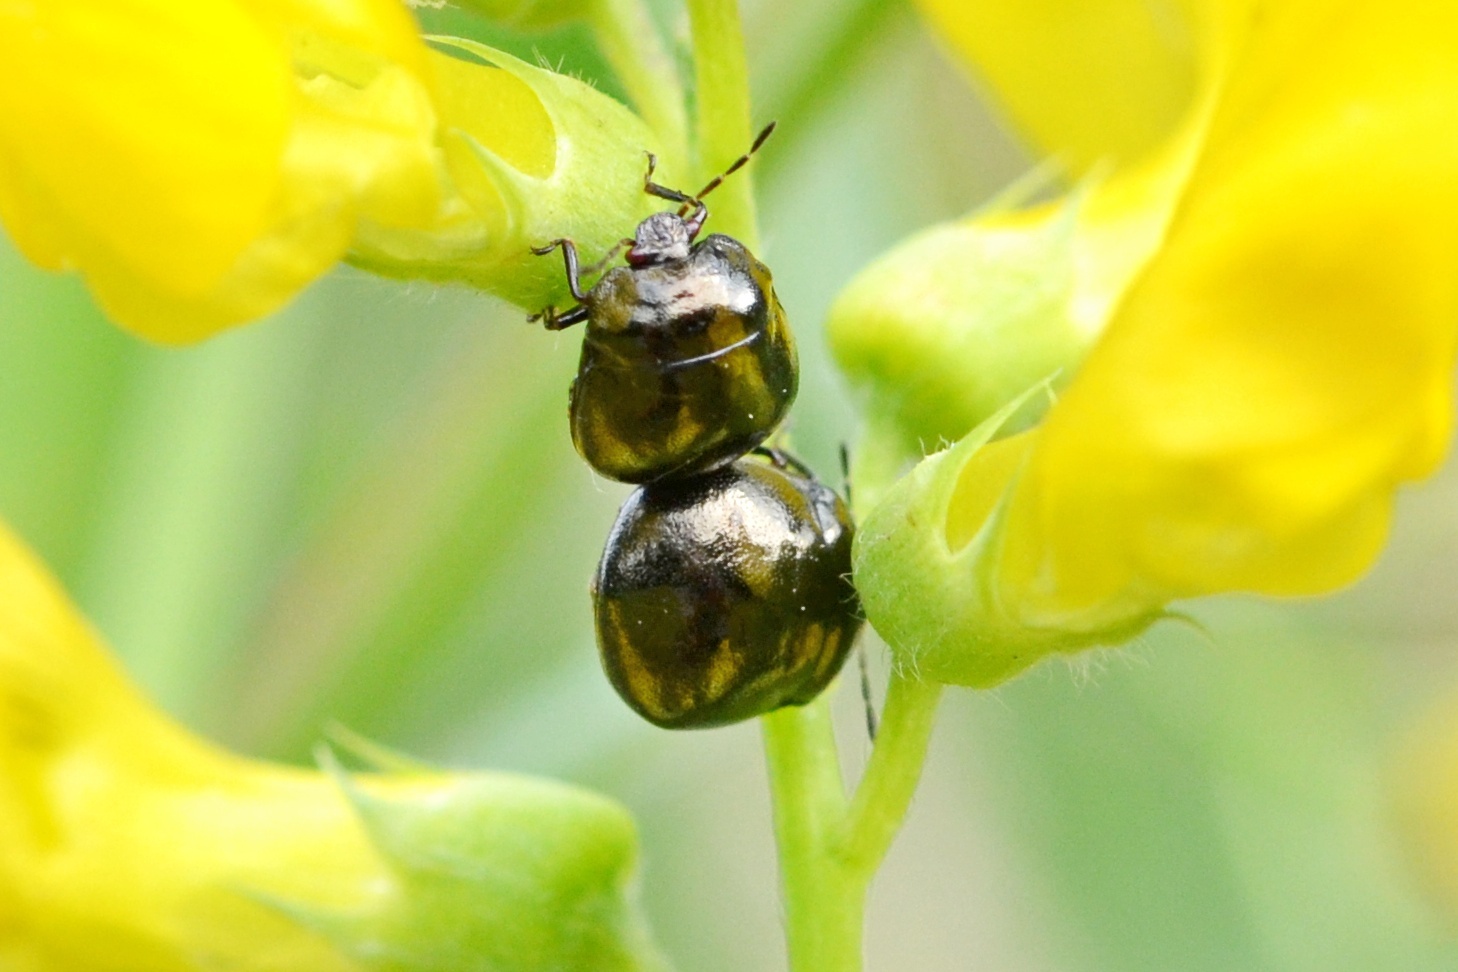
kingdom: Animalia
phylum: Arthropoda
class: Insecta
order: Hemiptera
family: Plataspidae
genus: Coptosoma
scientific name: Coptosoma scutellatum
